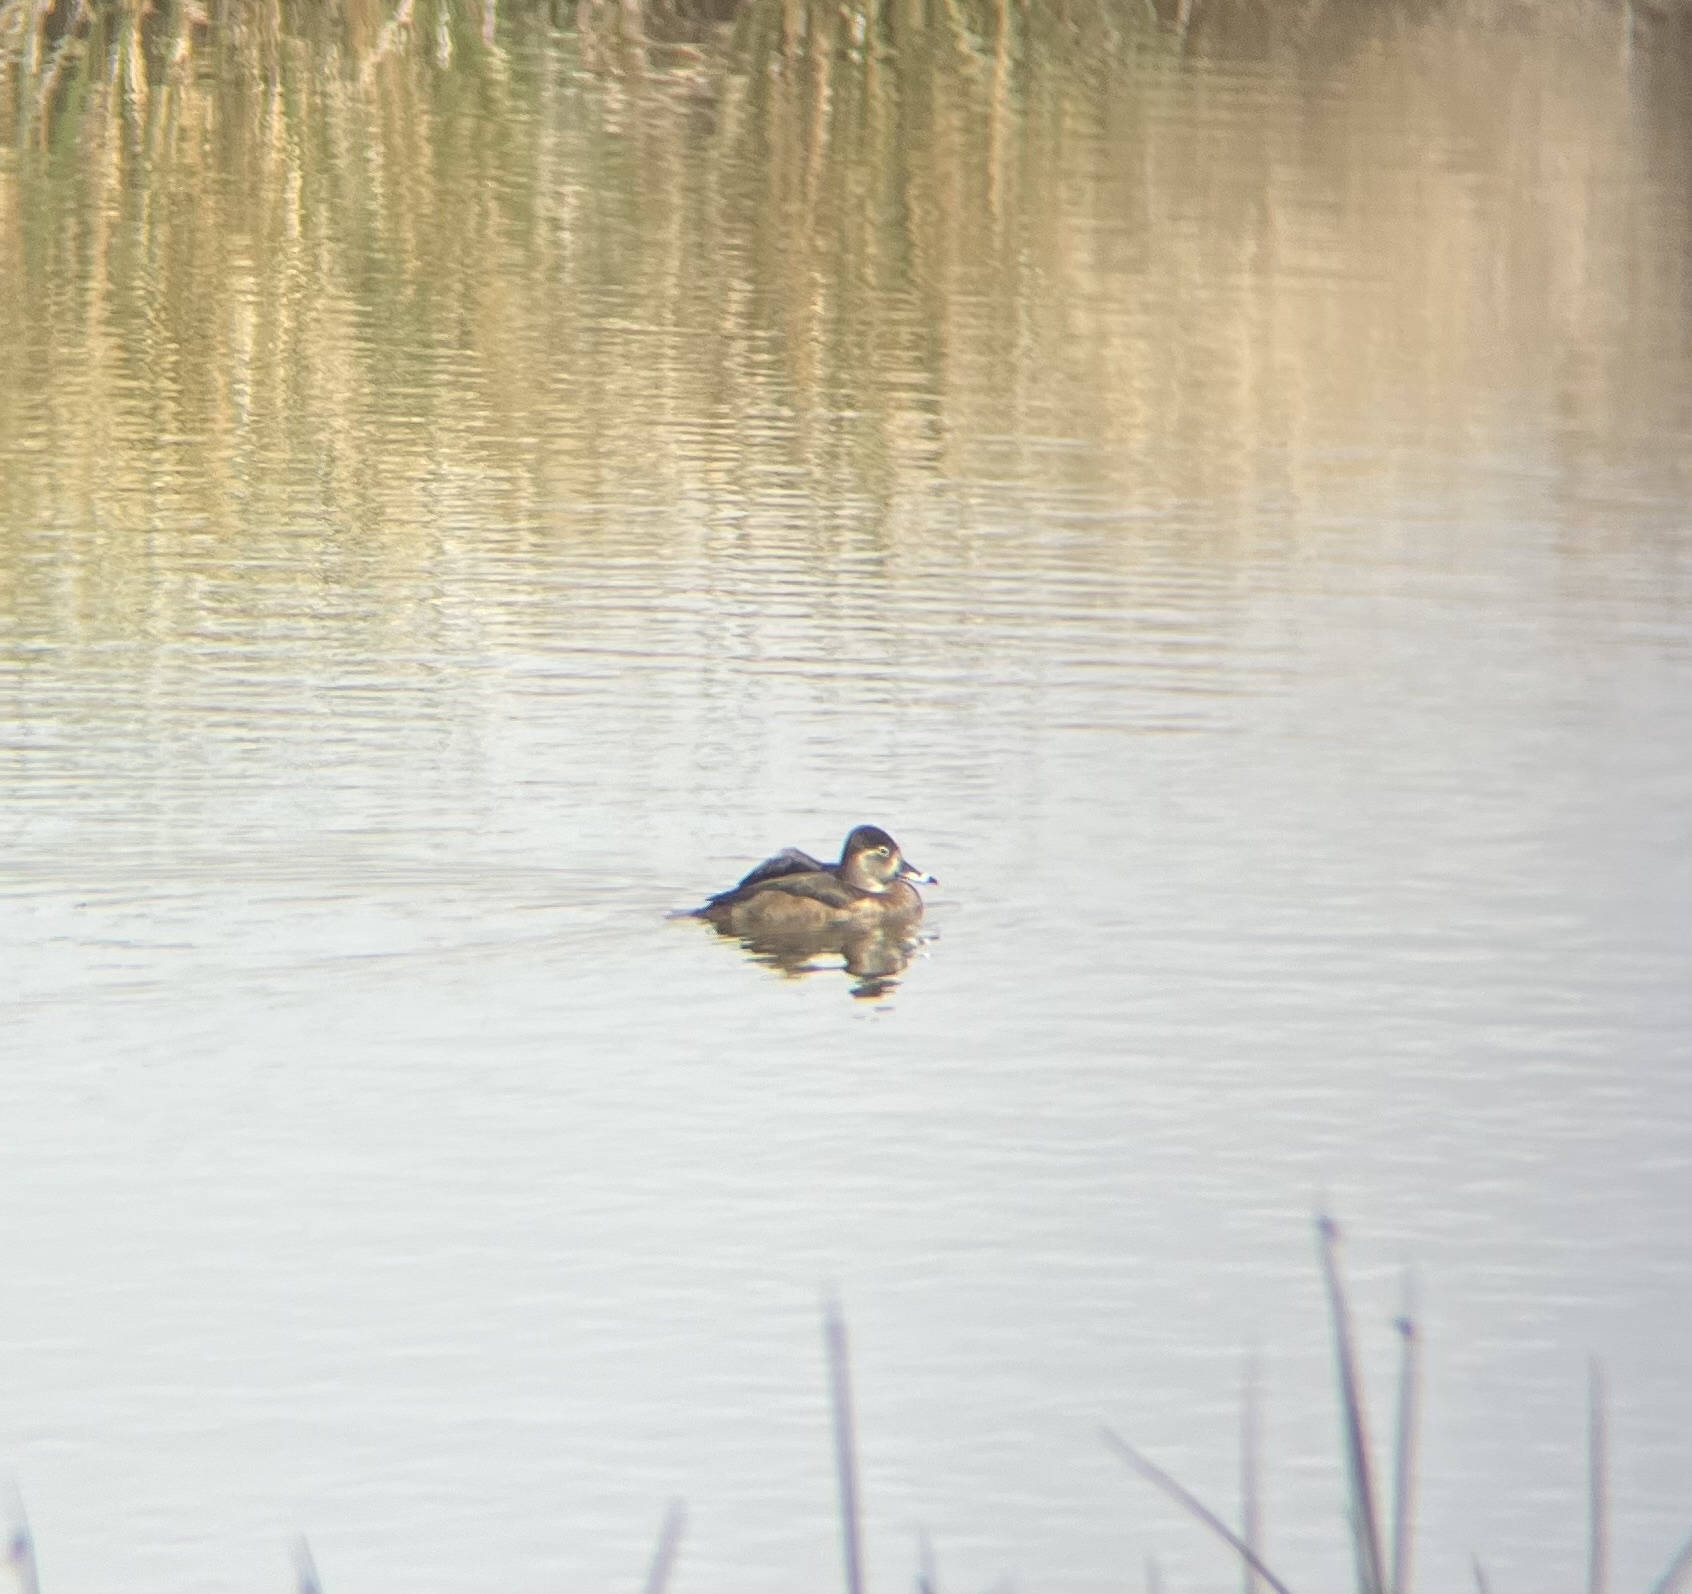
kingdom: Animalia
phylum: Chordata
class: Aves
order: Anseriformes
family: Anatidae
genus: Aythya
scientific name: Aythya collaris
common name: Ring-necked duck
